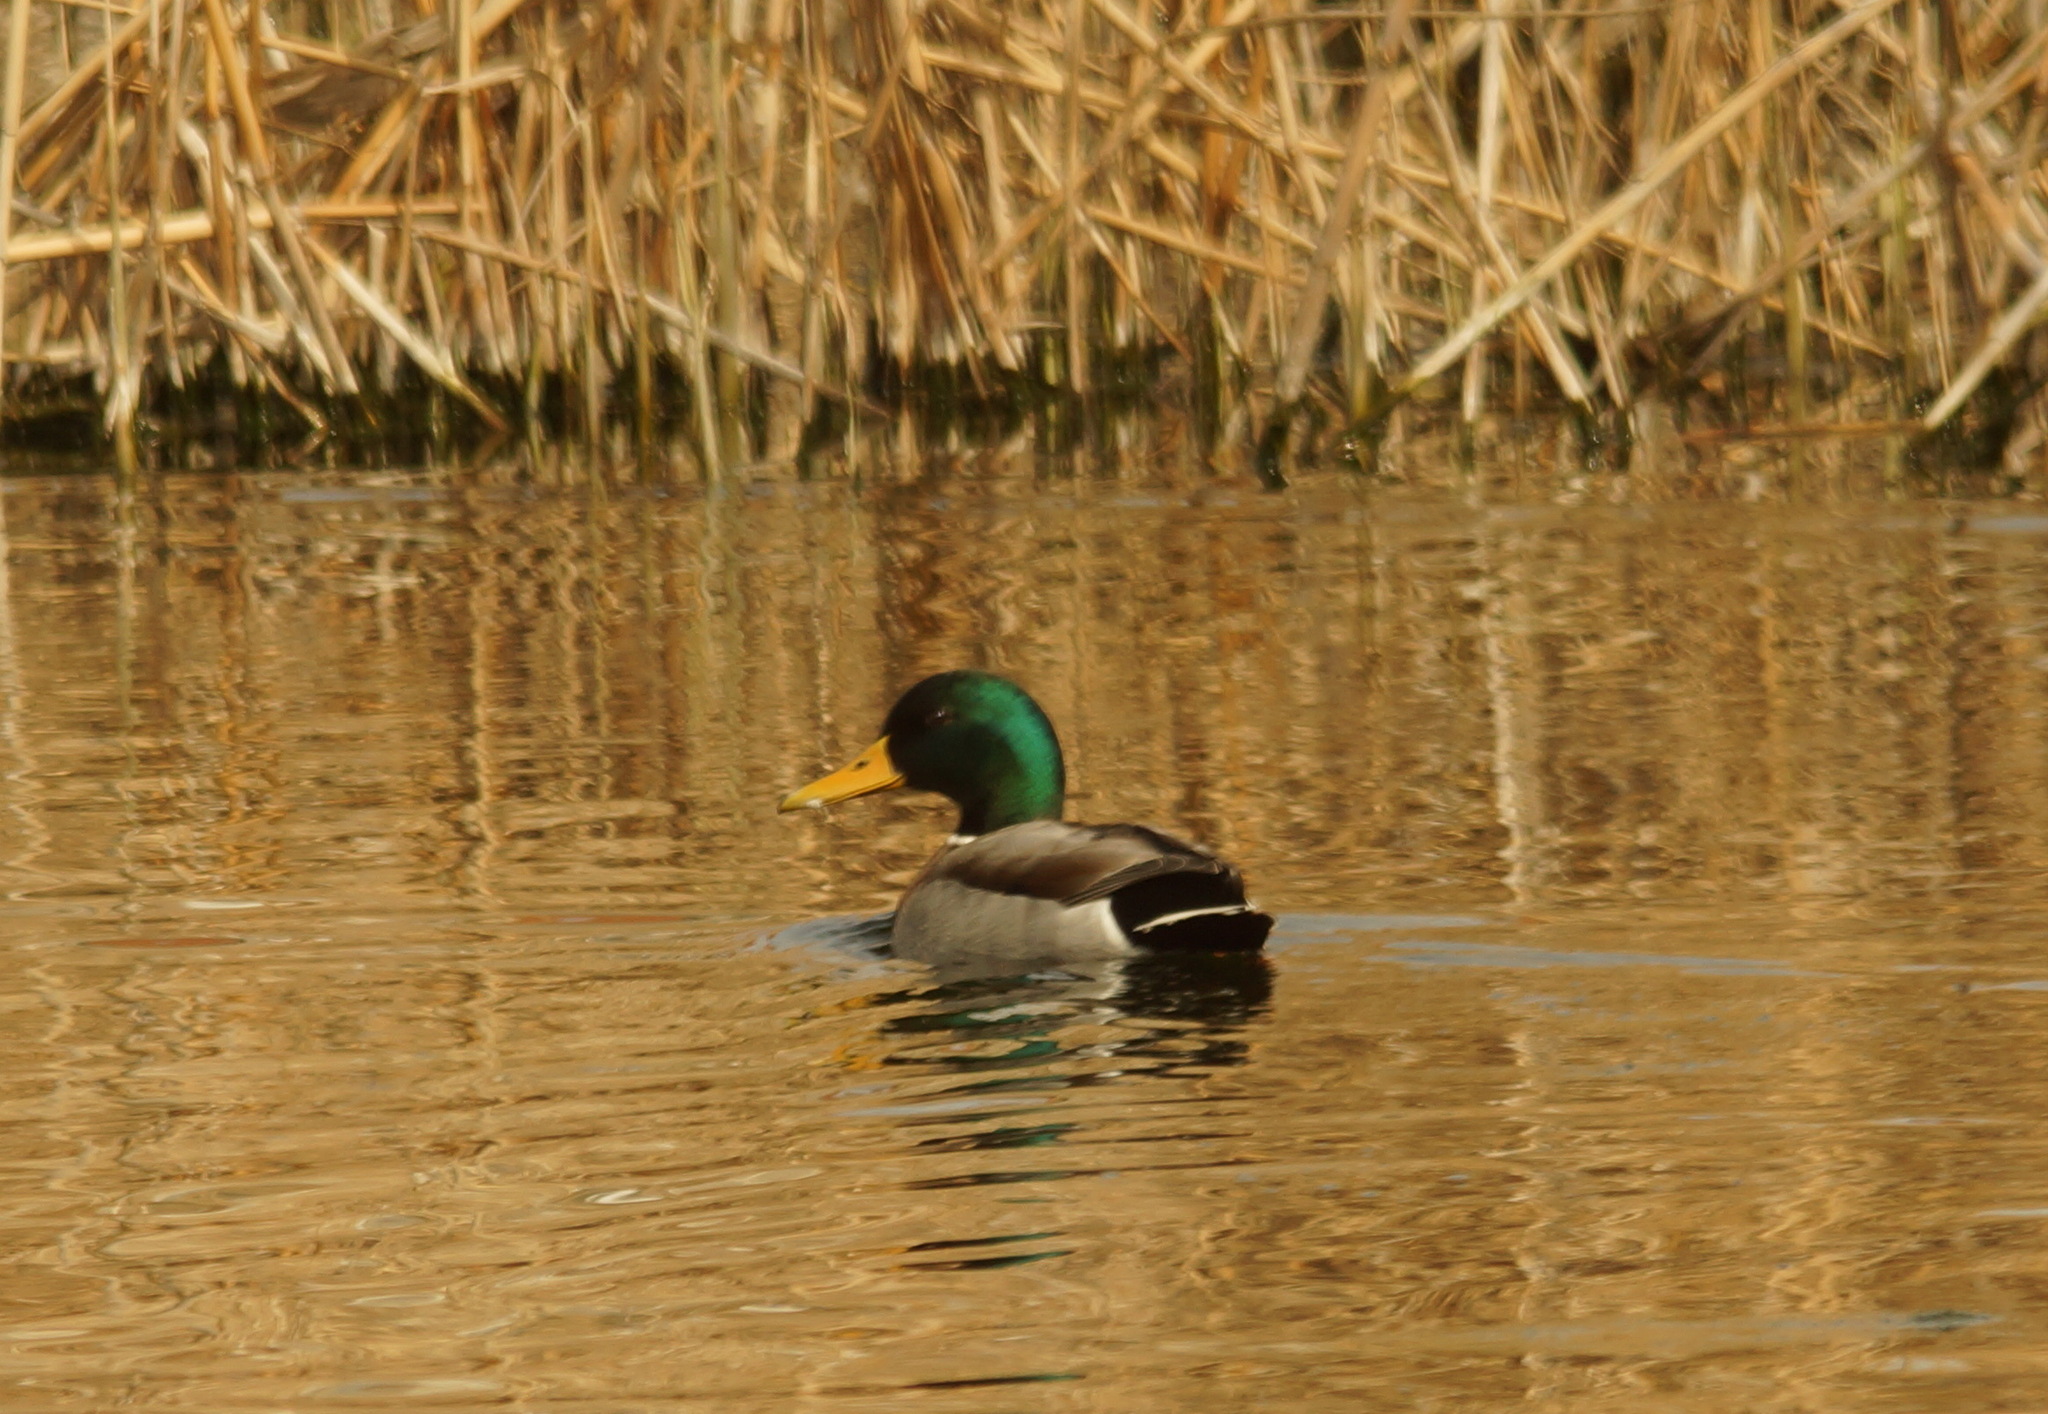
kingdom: Animalia
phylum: Chordata
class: Aves
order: Anseriformes
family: Anatidae
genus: Anas
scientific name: Anas platyrhynchos
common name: Mallard
